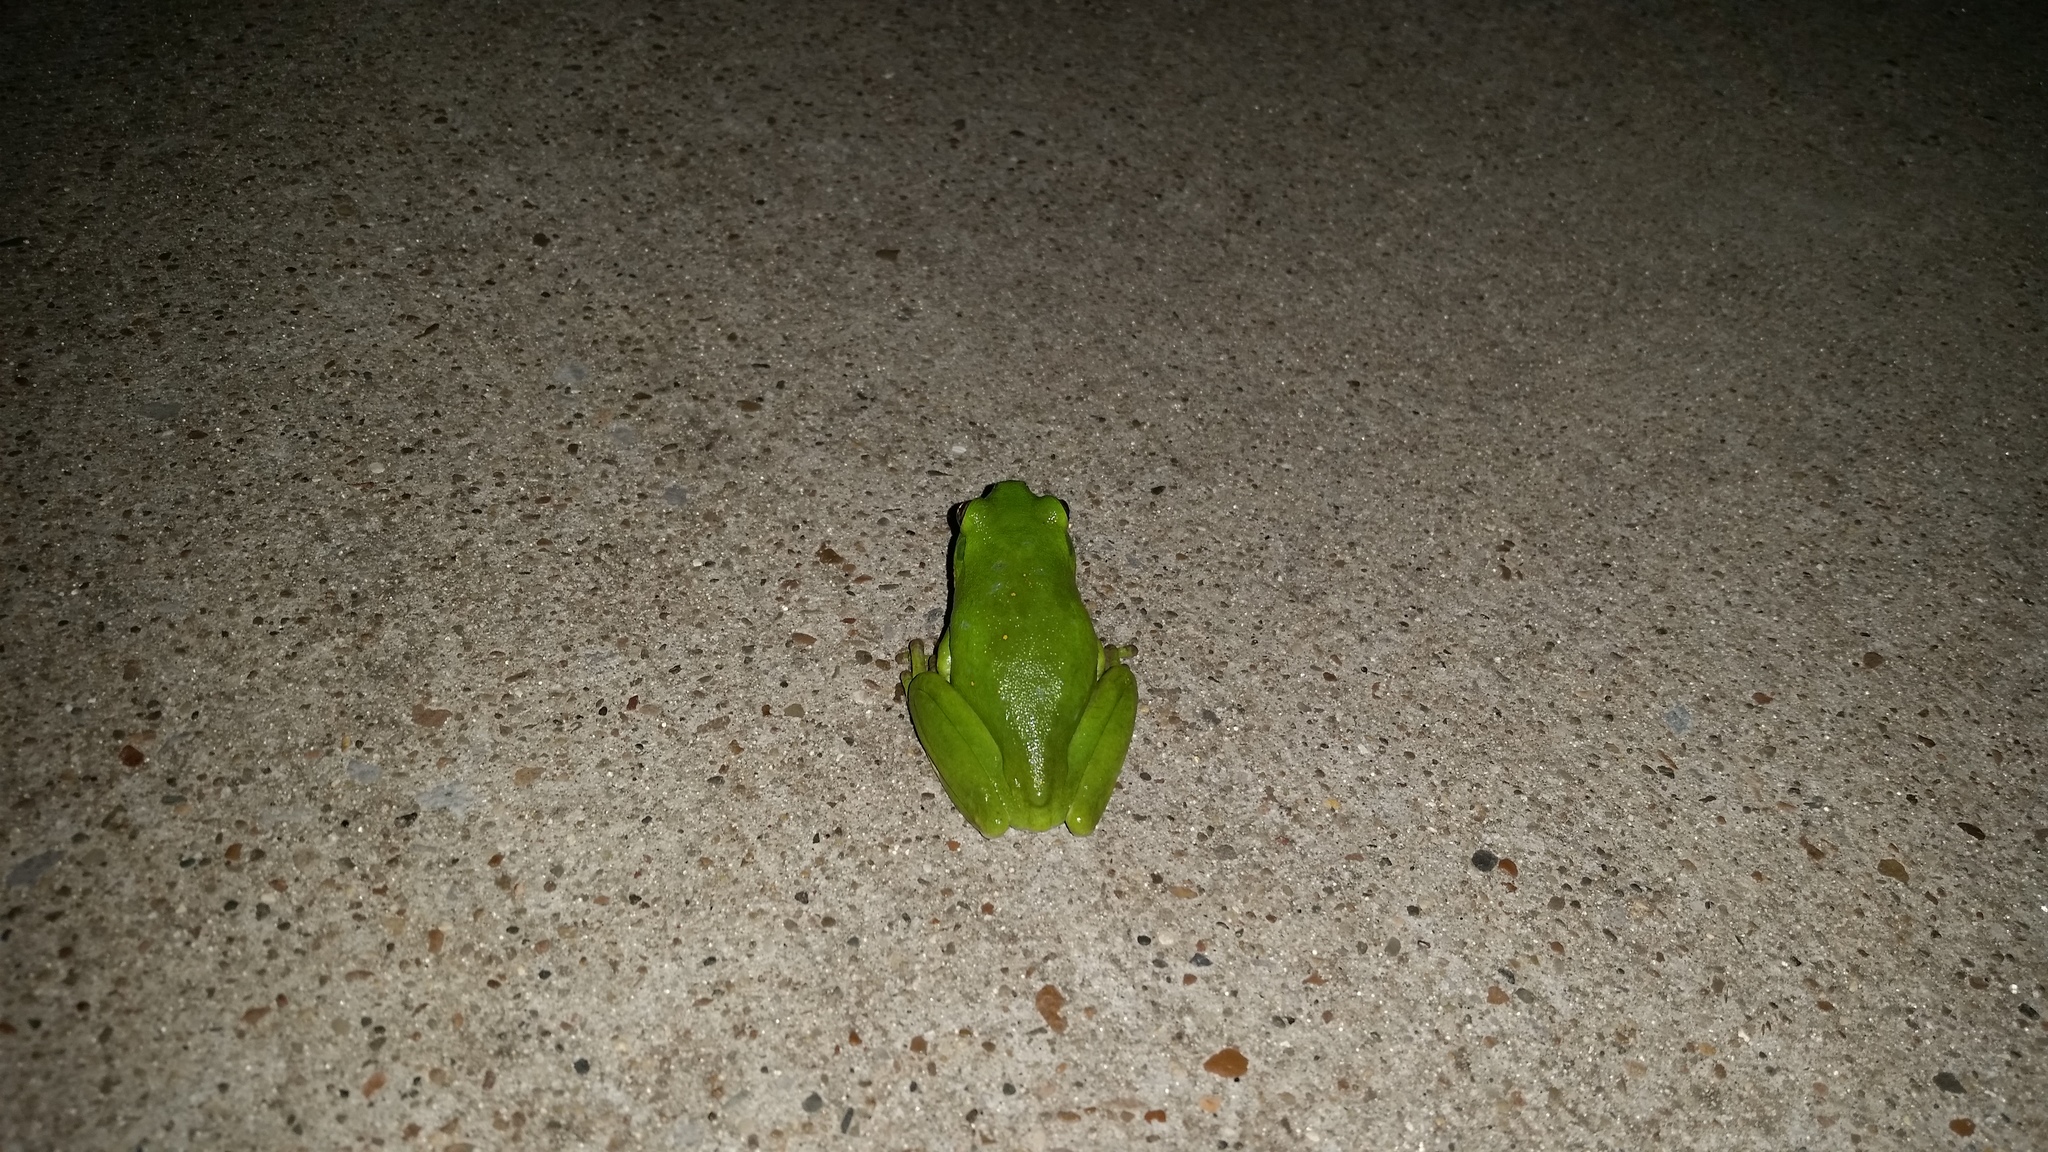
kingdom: Animalia
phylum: Chordata
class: Amphibia
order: Anura
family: Hylidae
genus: Dryophytes
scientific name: Dryophytes cinereus
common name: Green treefrog
